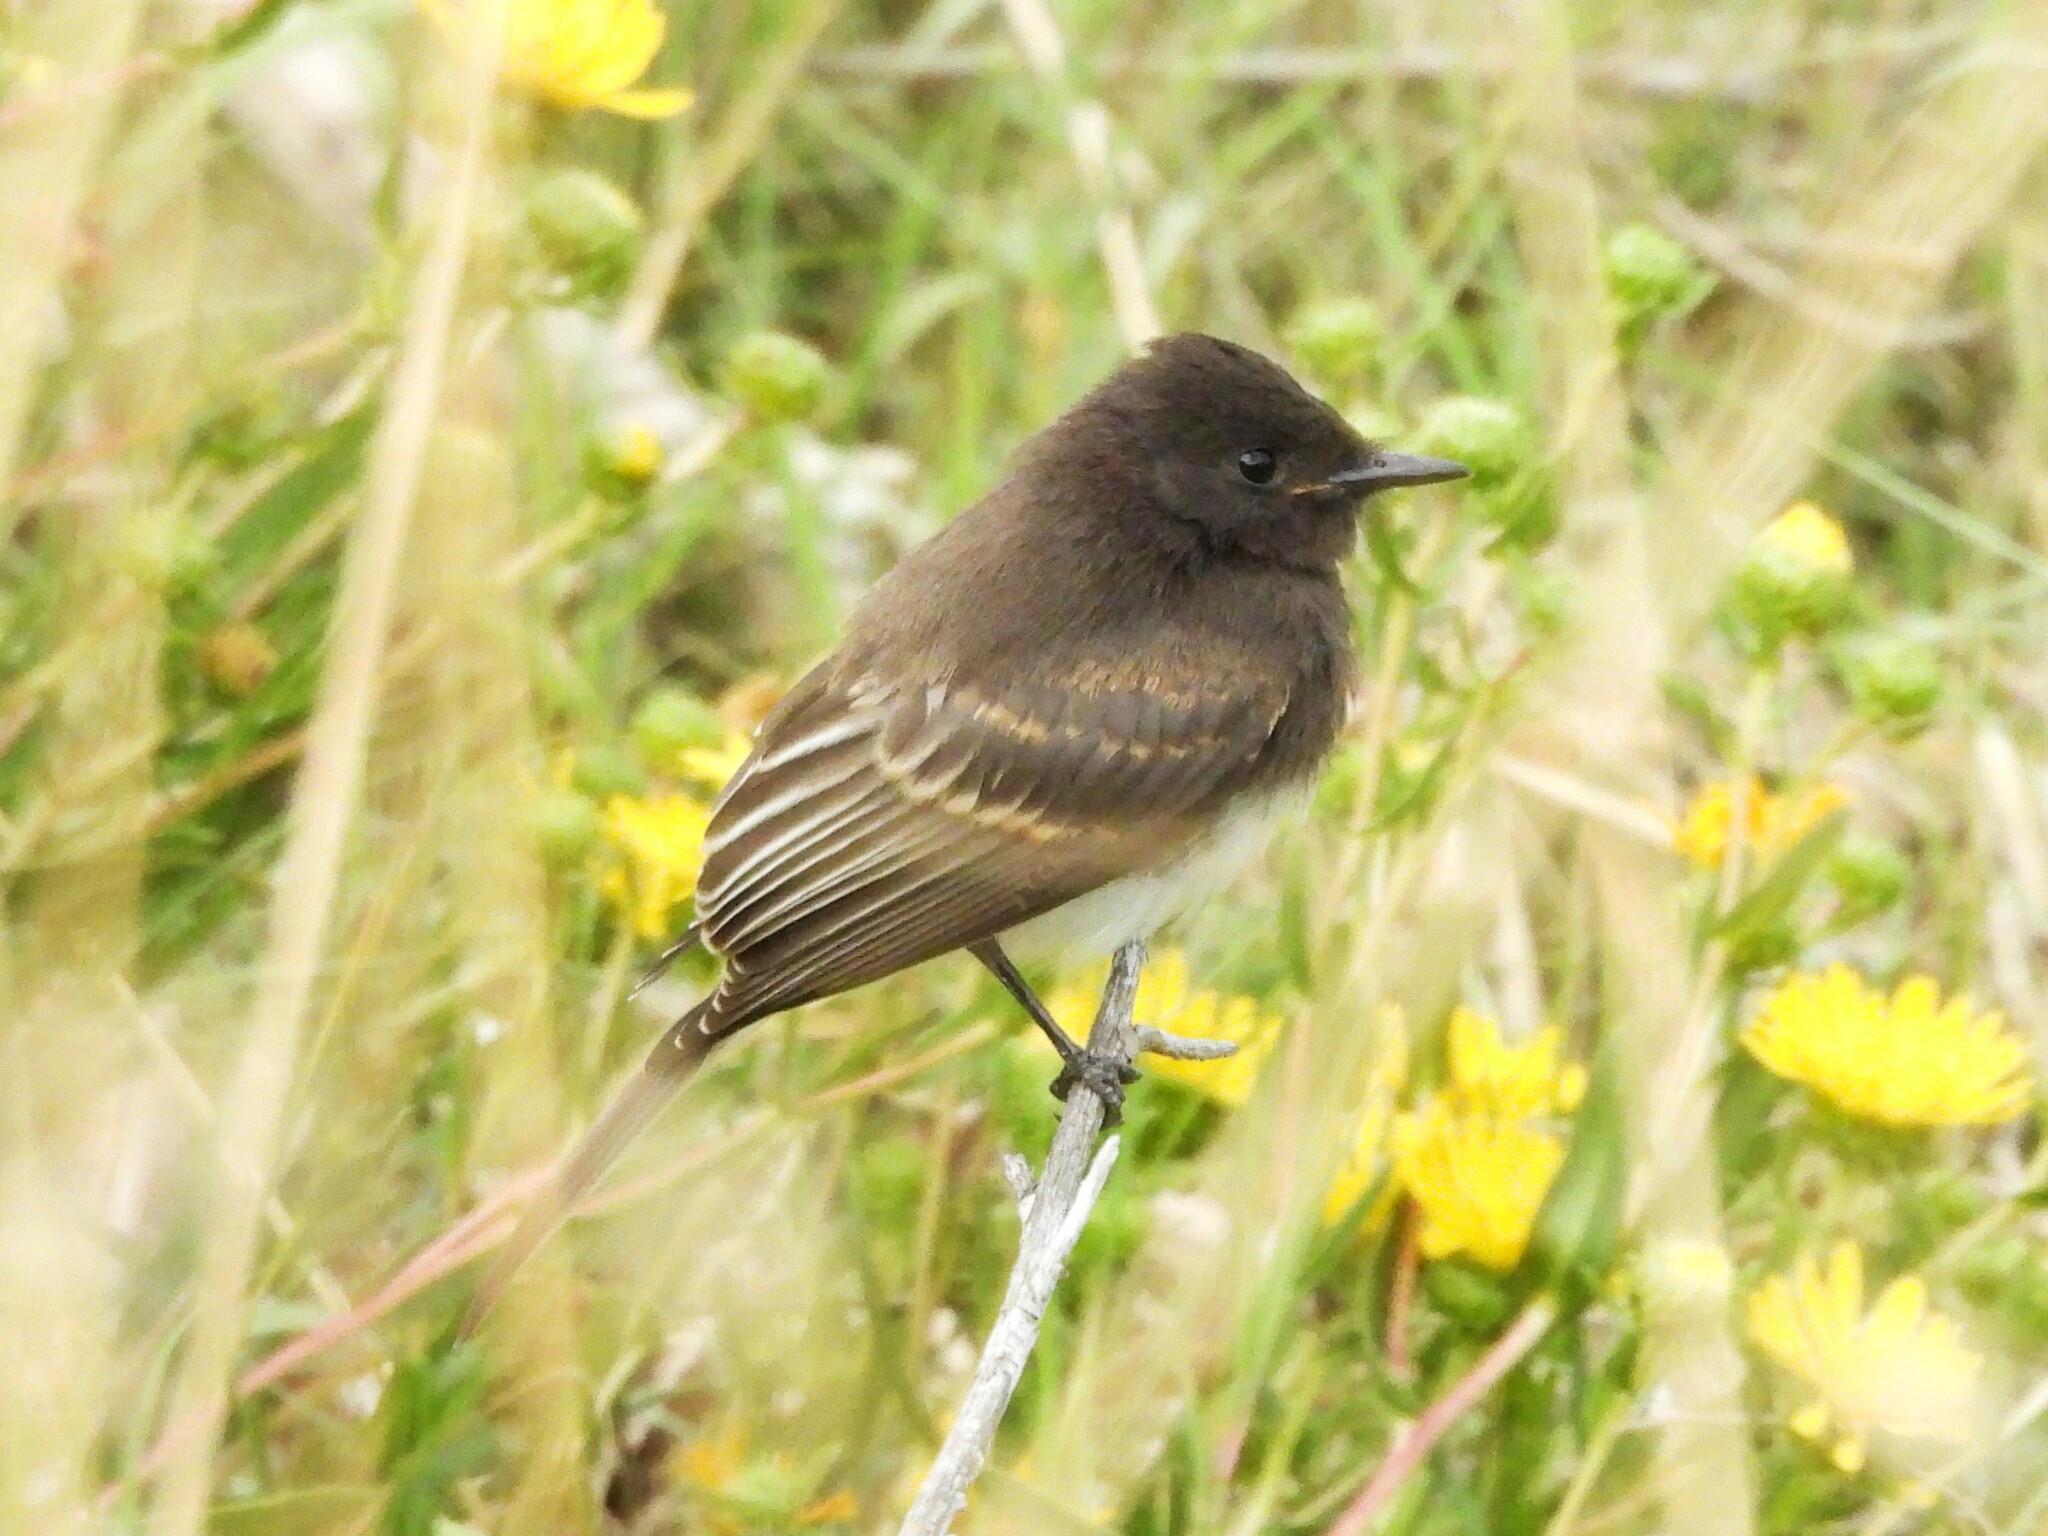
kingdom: Animalia
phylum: Chordata
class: Aves
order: Passeriformes
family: Tyrannidae
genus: Sayornis
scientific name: Sayornis nigricans
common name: Black phoebe
